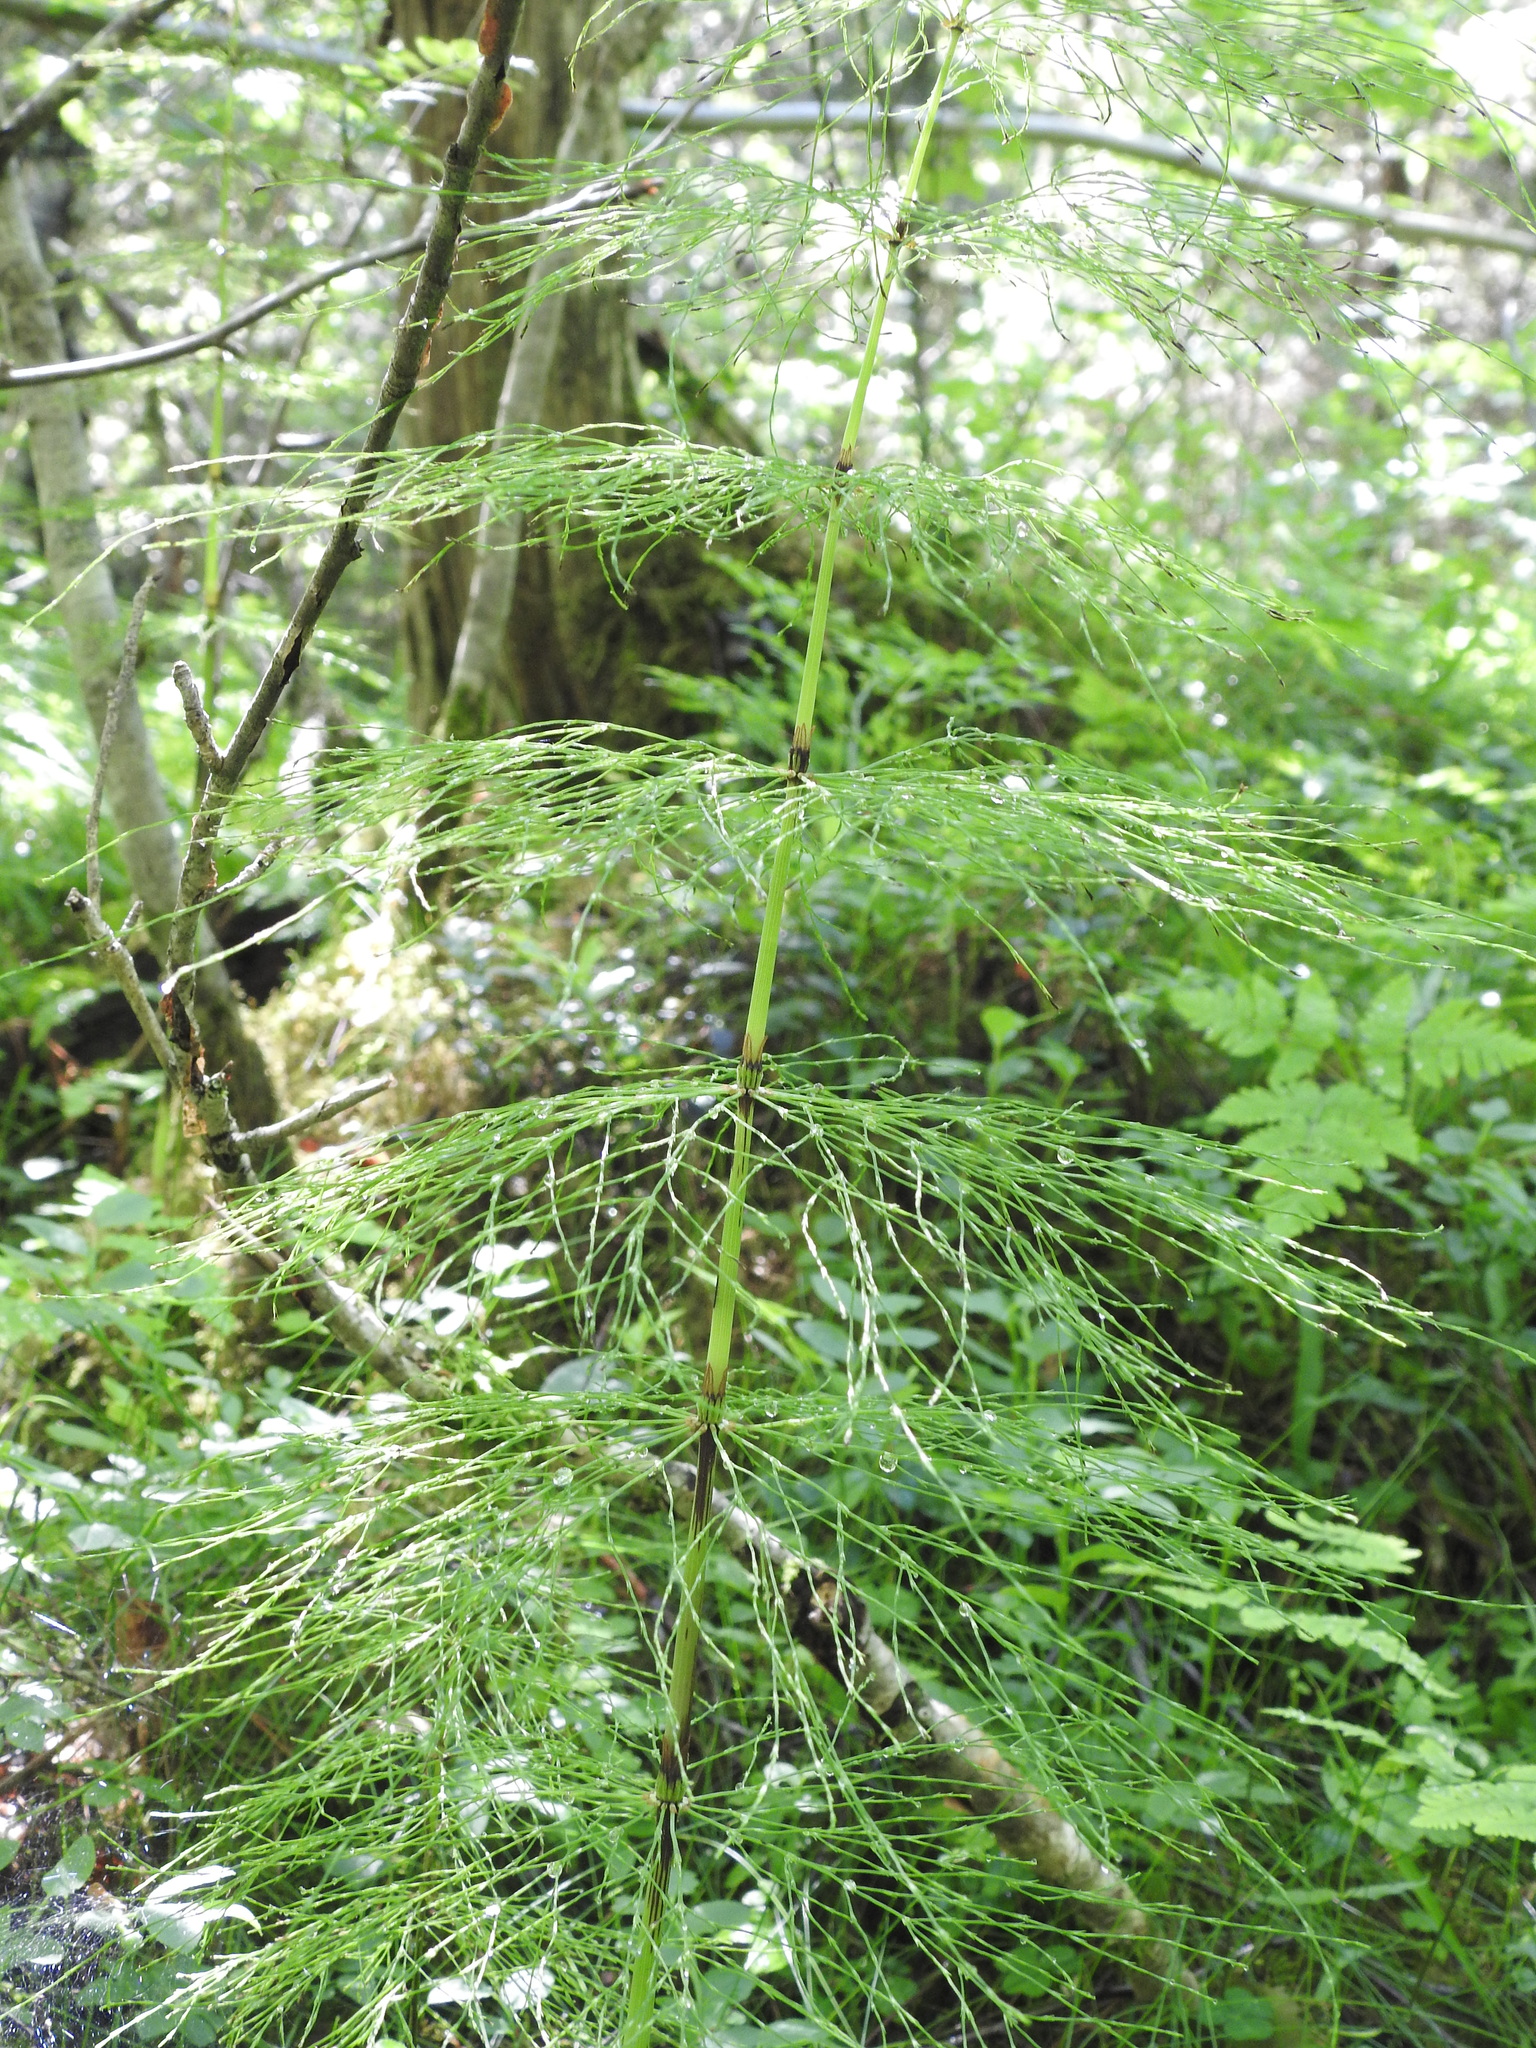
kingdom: Plantae
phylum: Tracheophyta
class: Polypodiopsida
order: Equisetales
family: Equisetaceae
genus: Equisetum
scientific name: Equisetum sylvaticum
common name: Wood horsetail
